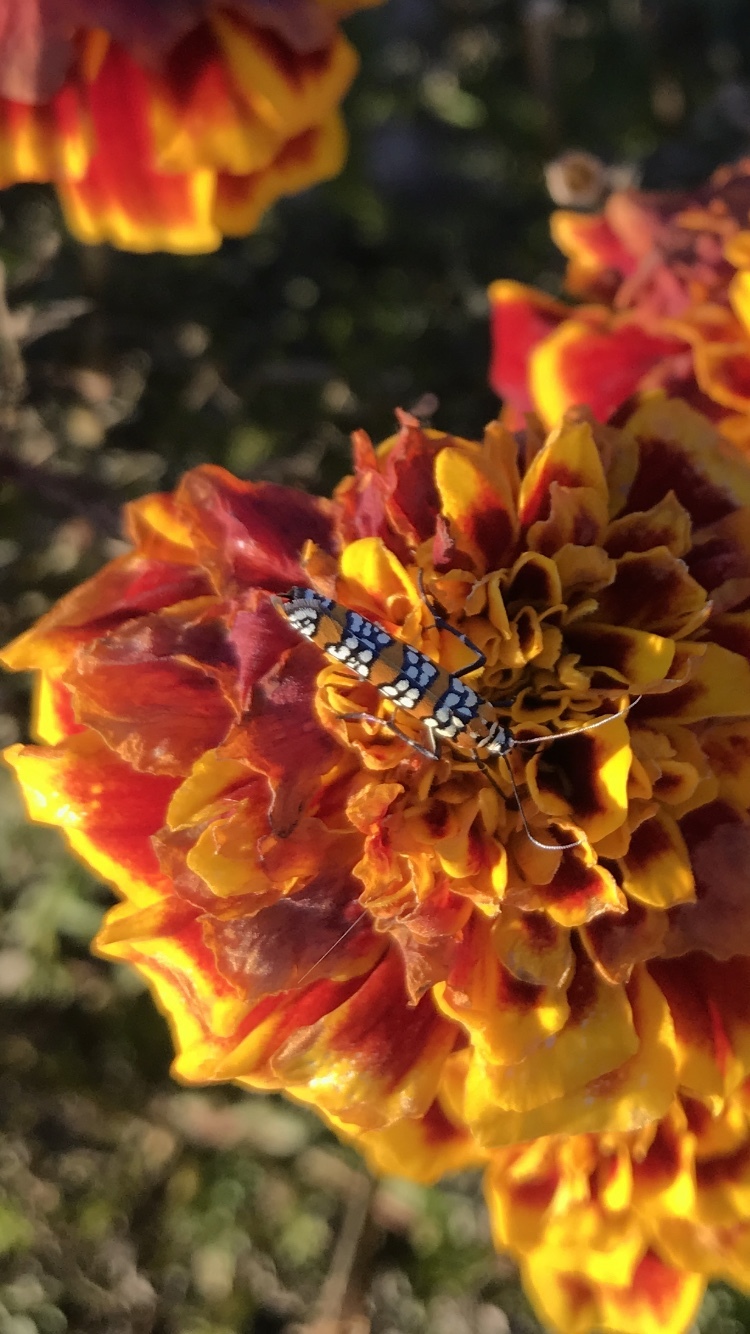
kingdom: Animalia
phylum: Arthropoda
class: Insecta
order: Lepidoptera
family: Attevidae
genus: Atteva
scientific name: Atteva punctella
